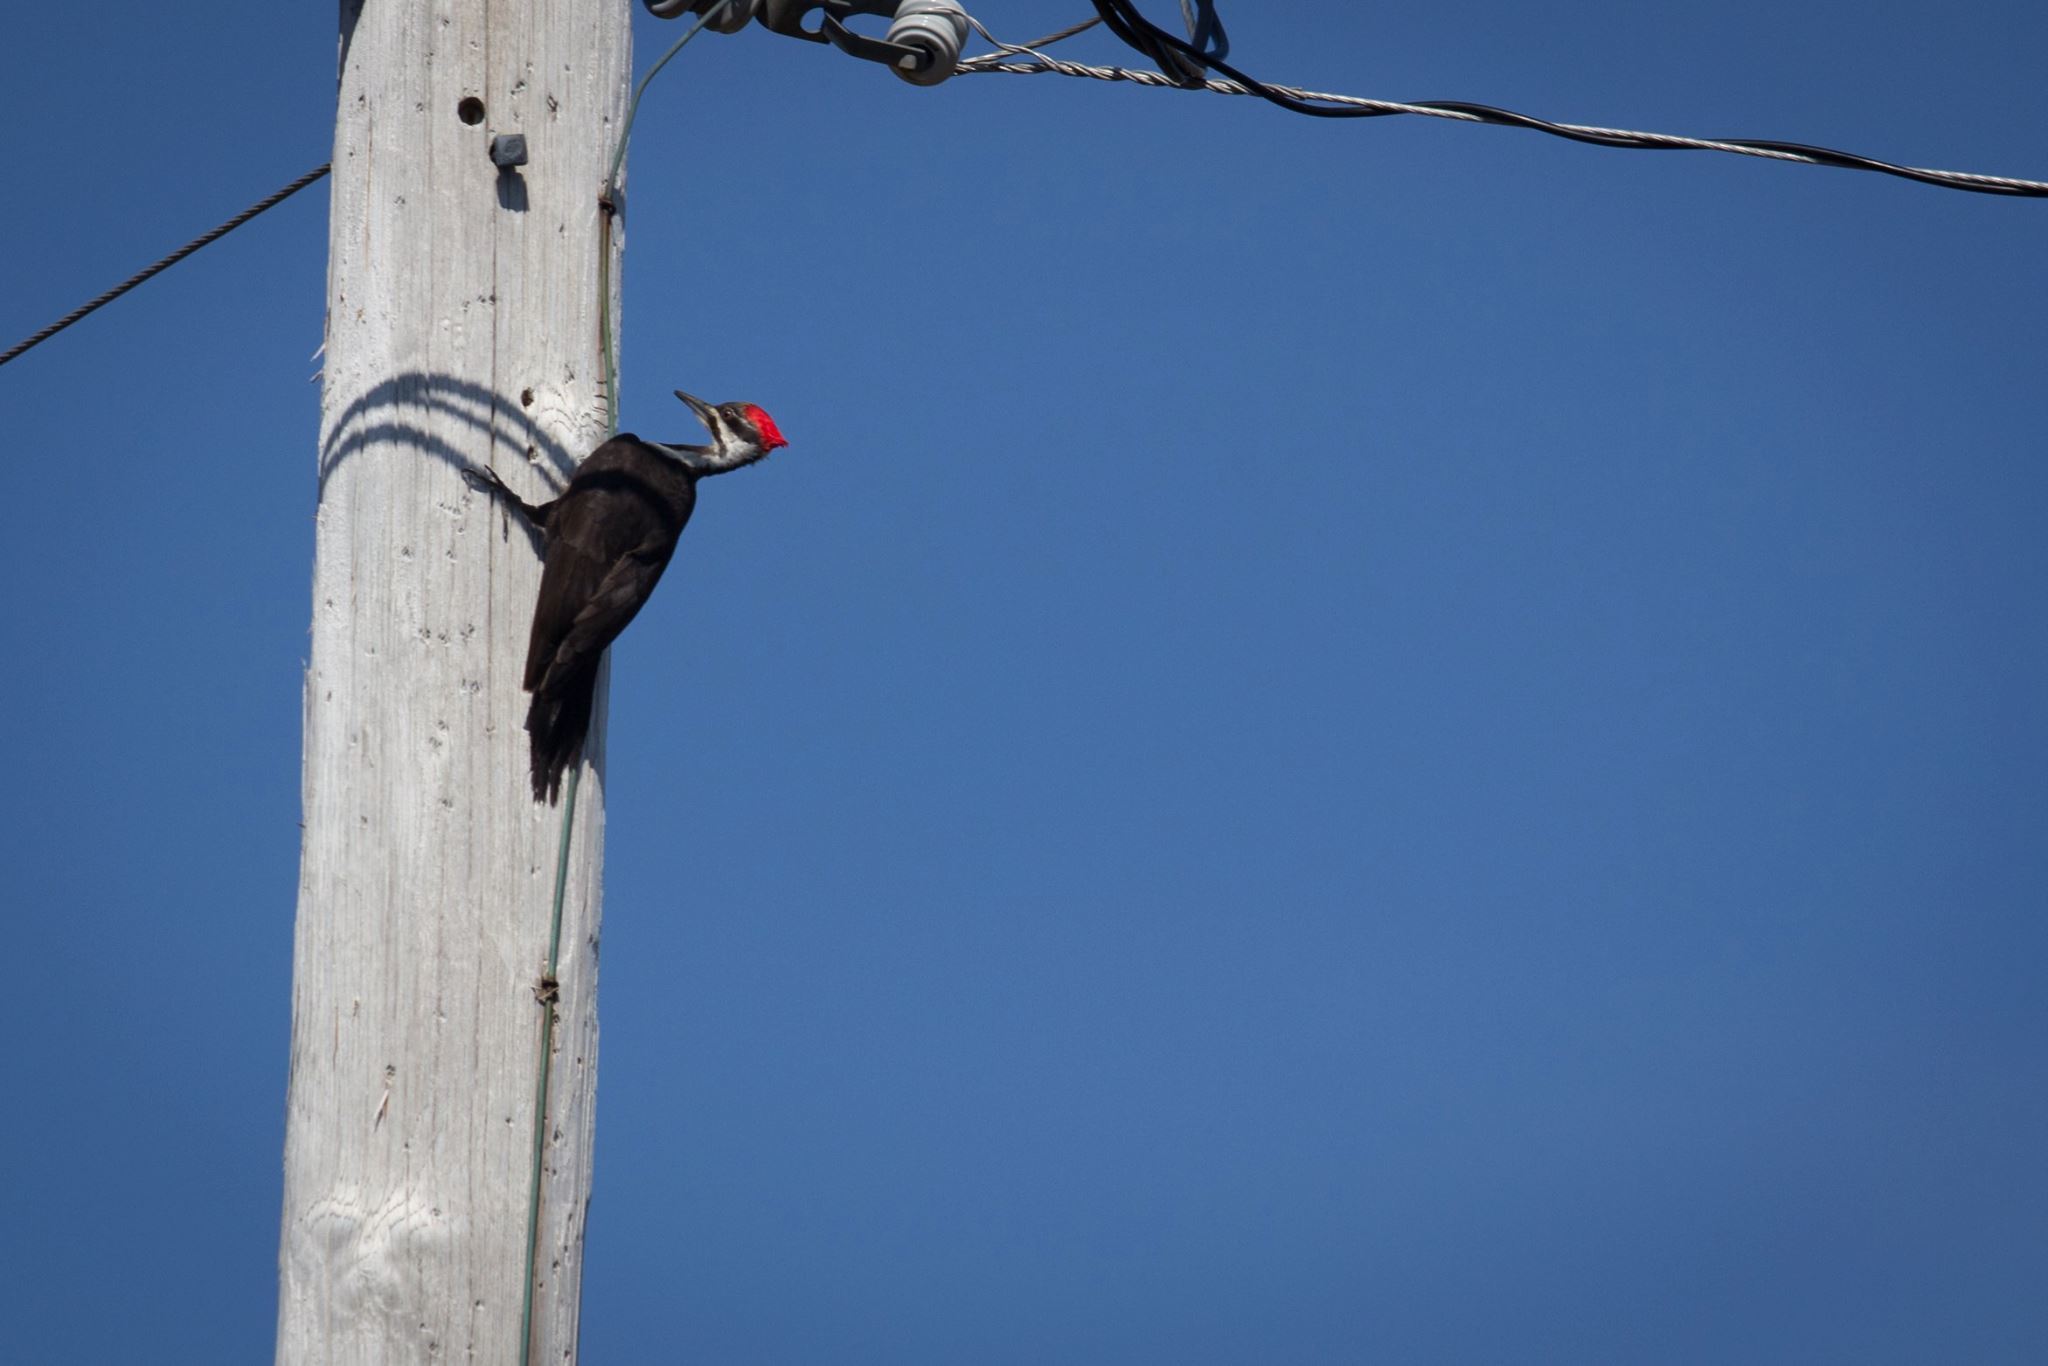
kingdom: Animalia
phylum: Chordata
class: Aves
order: Piciformes
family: Picidae
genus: Dryocopus
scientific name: Dryocopus pileatus
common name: Pileated woodpecker
